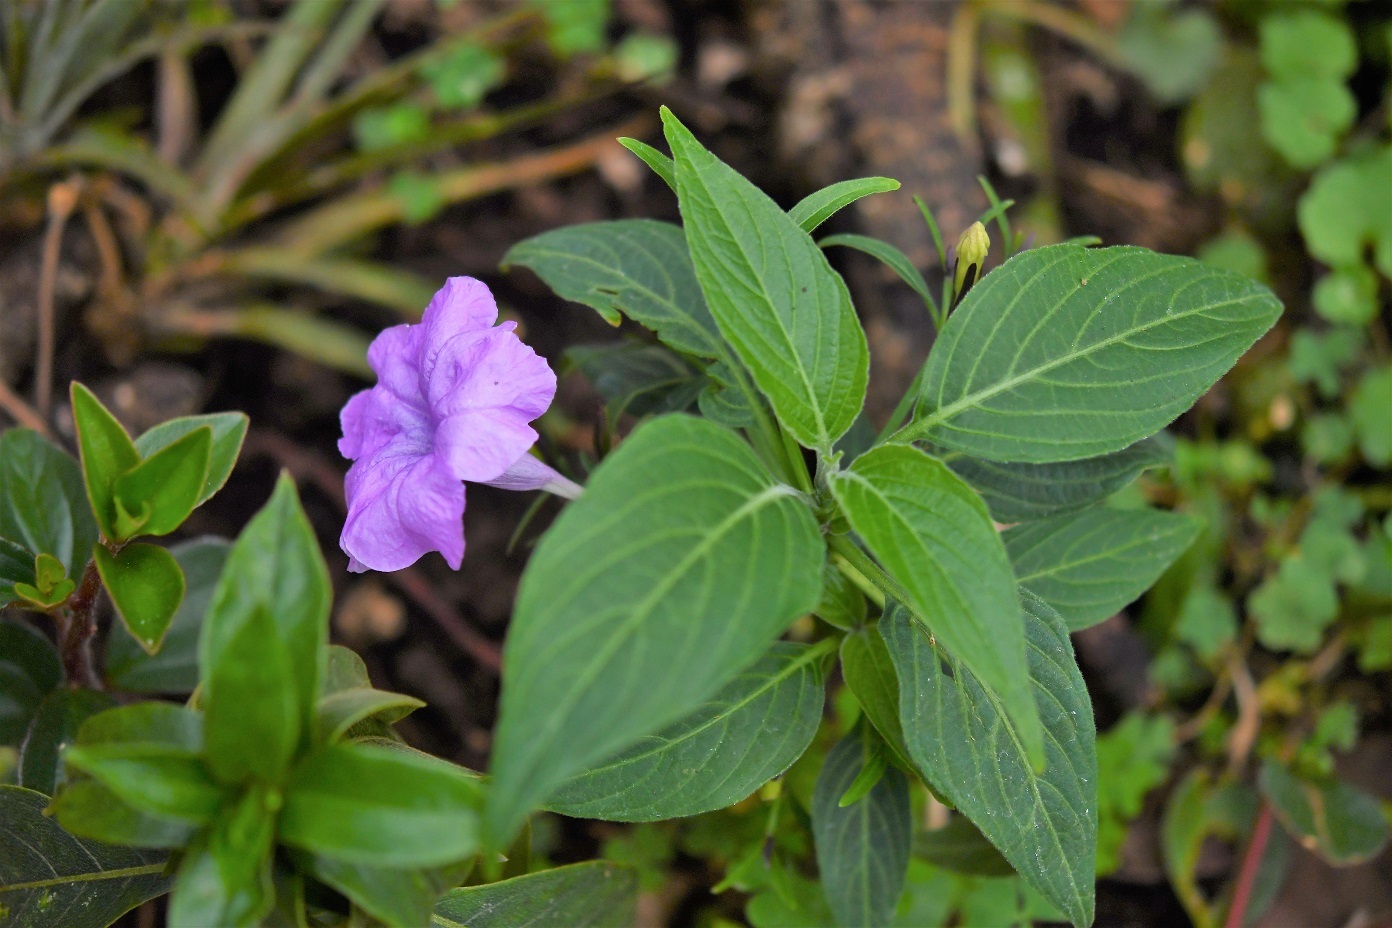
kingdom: Plantae
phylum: Tracheophyta
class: Magnoliopsida
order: Lamiales
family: Acanthaceae
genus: Ruellia
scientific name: Ruellia breedlovei
